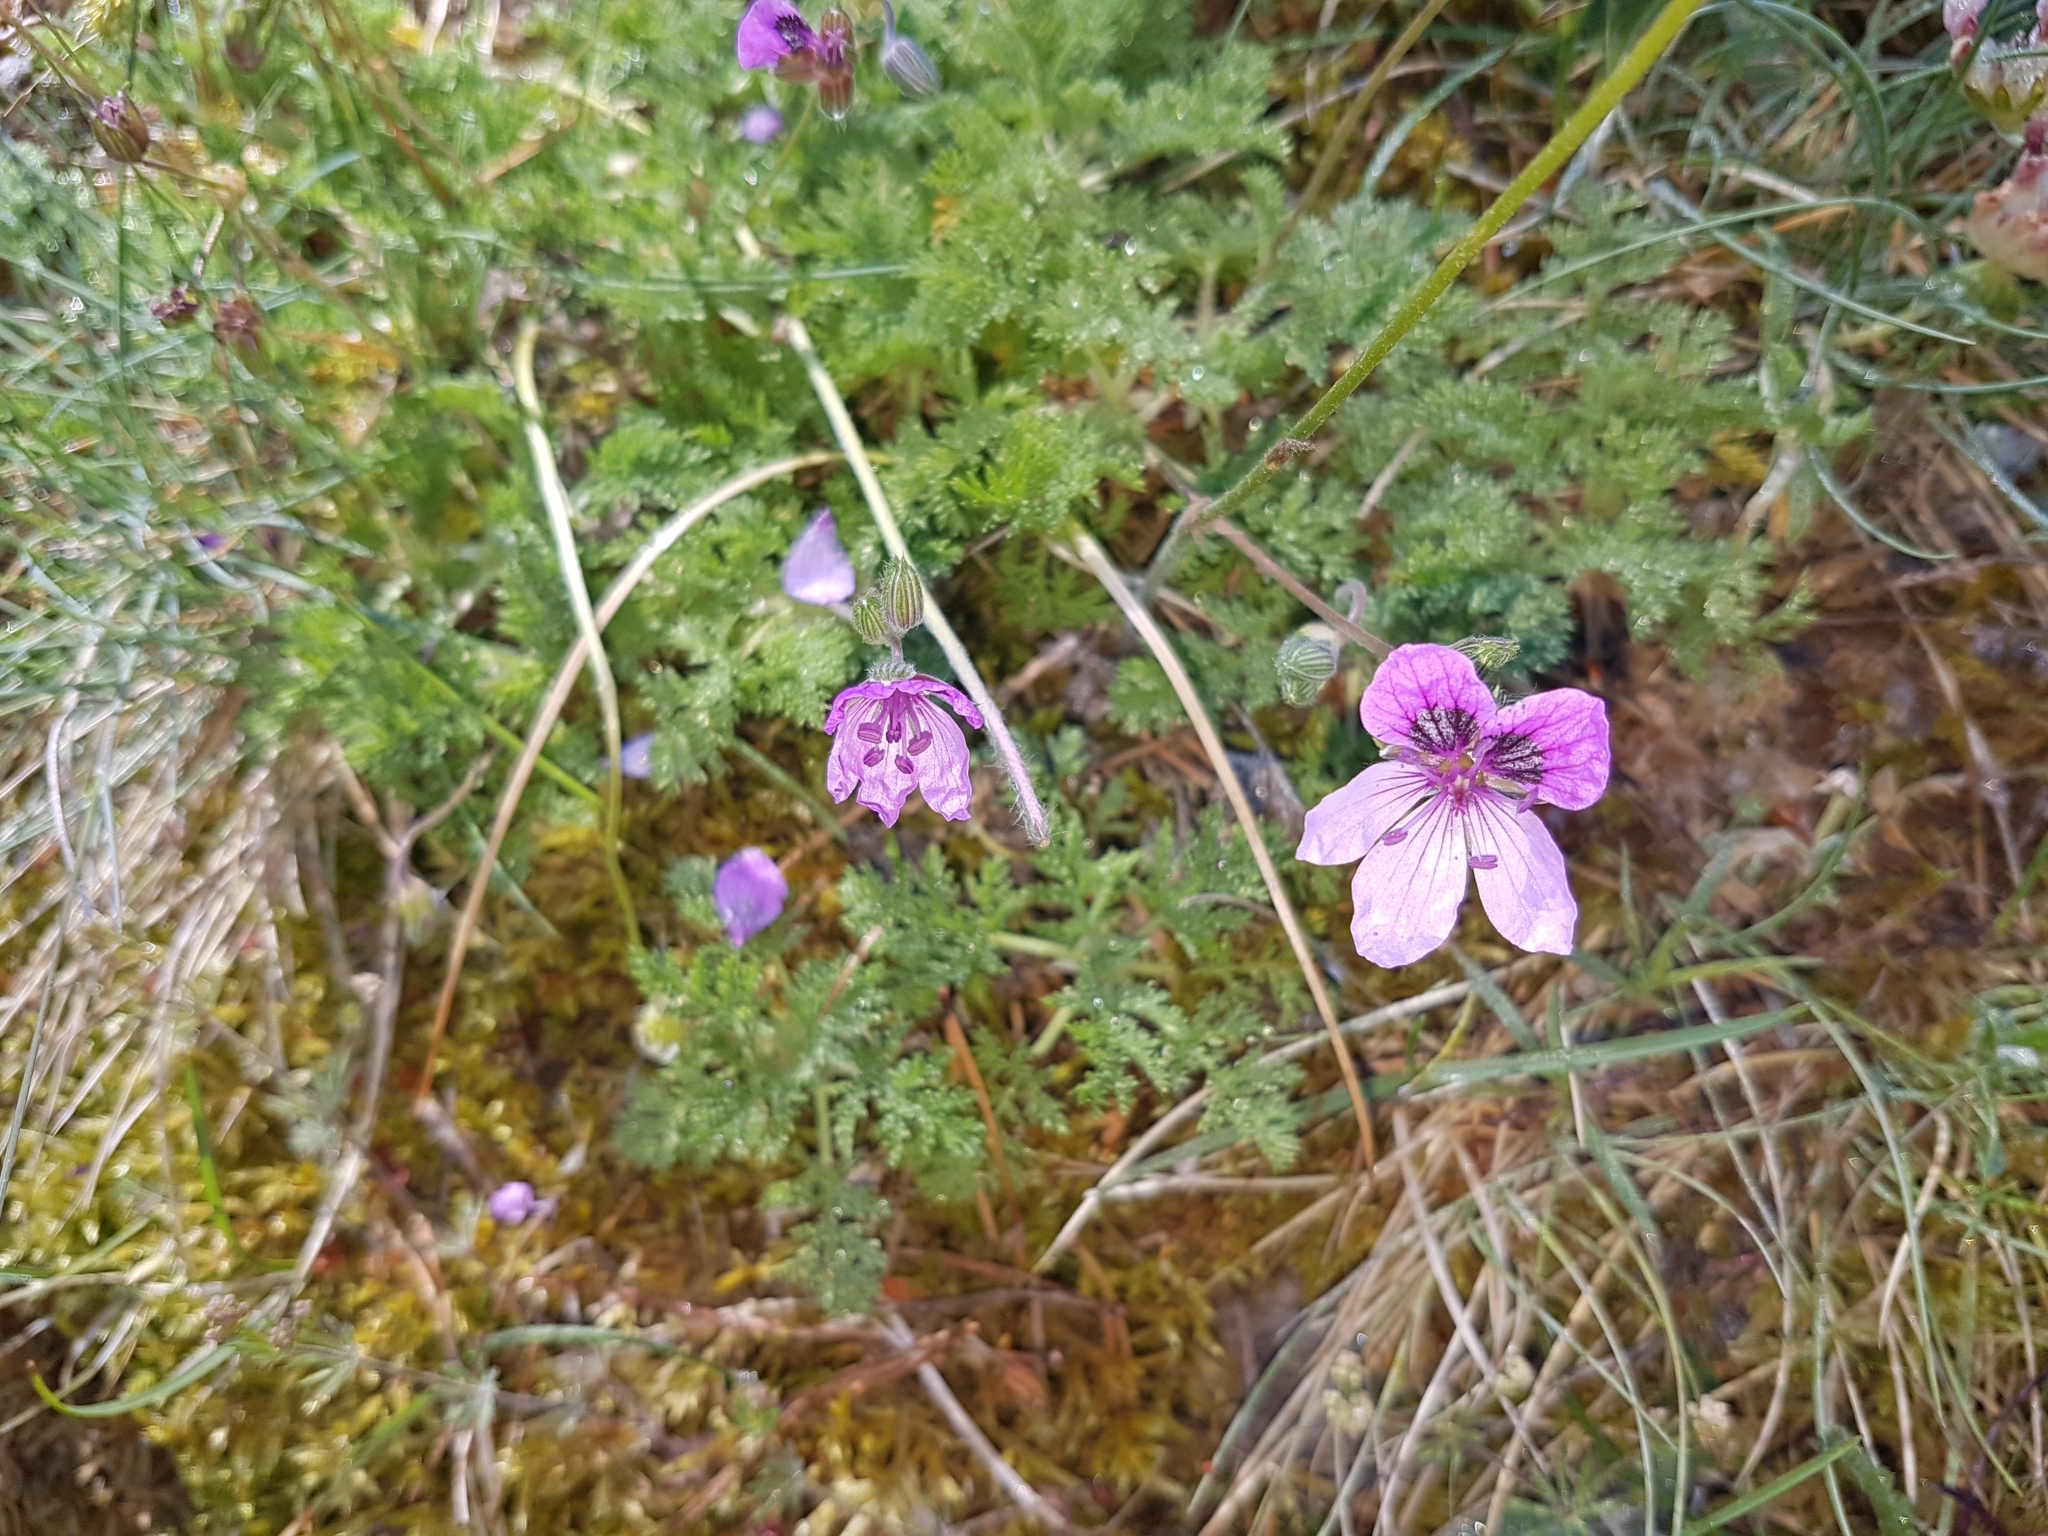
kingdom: Plantae
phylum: Tracheophyta
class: Magnoliopsida
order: Geraniales
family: Geraniaceae
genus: Erodium
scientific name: Erodium glandulosum
